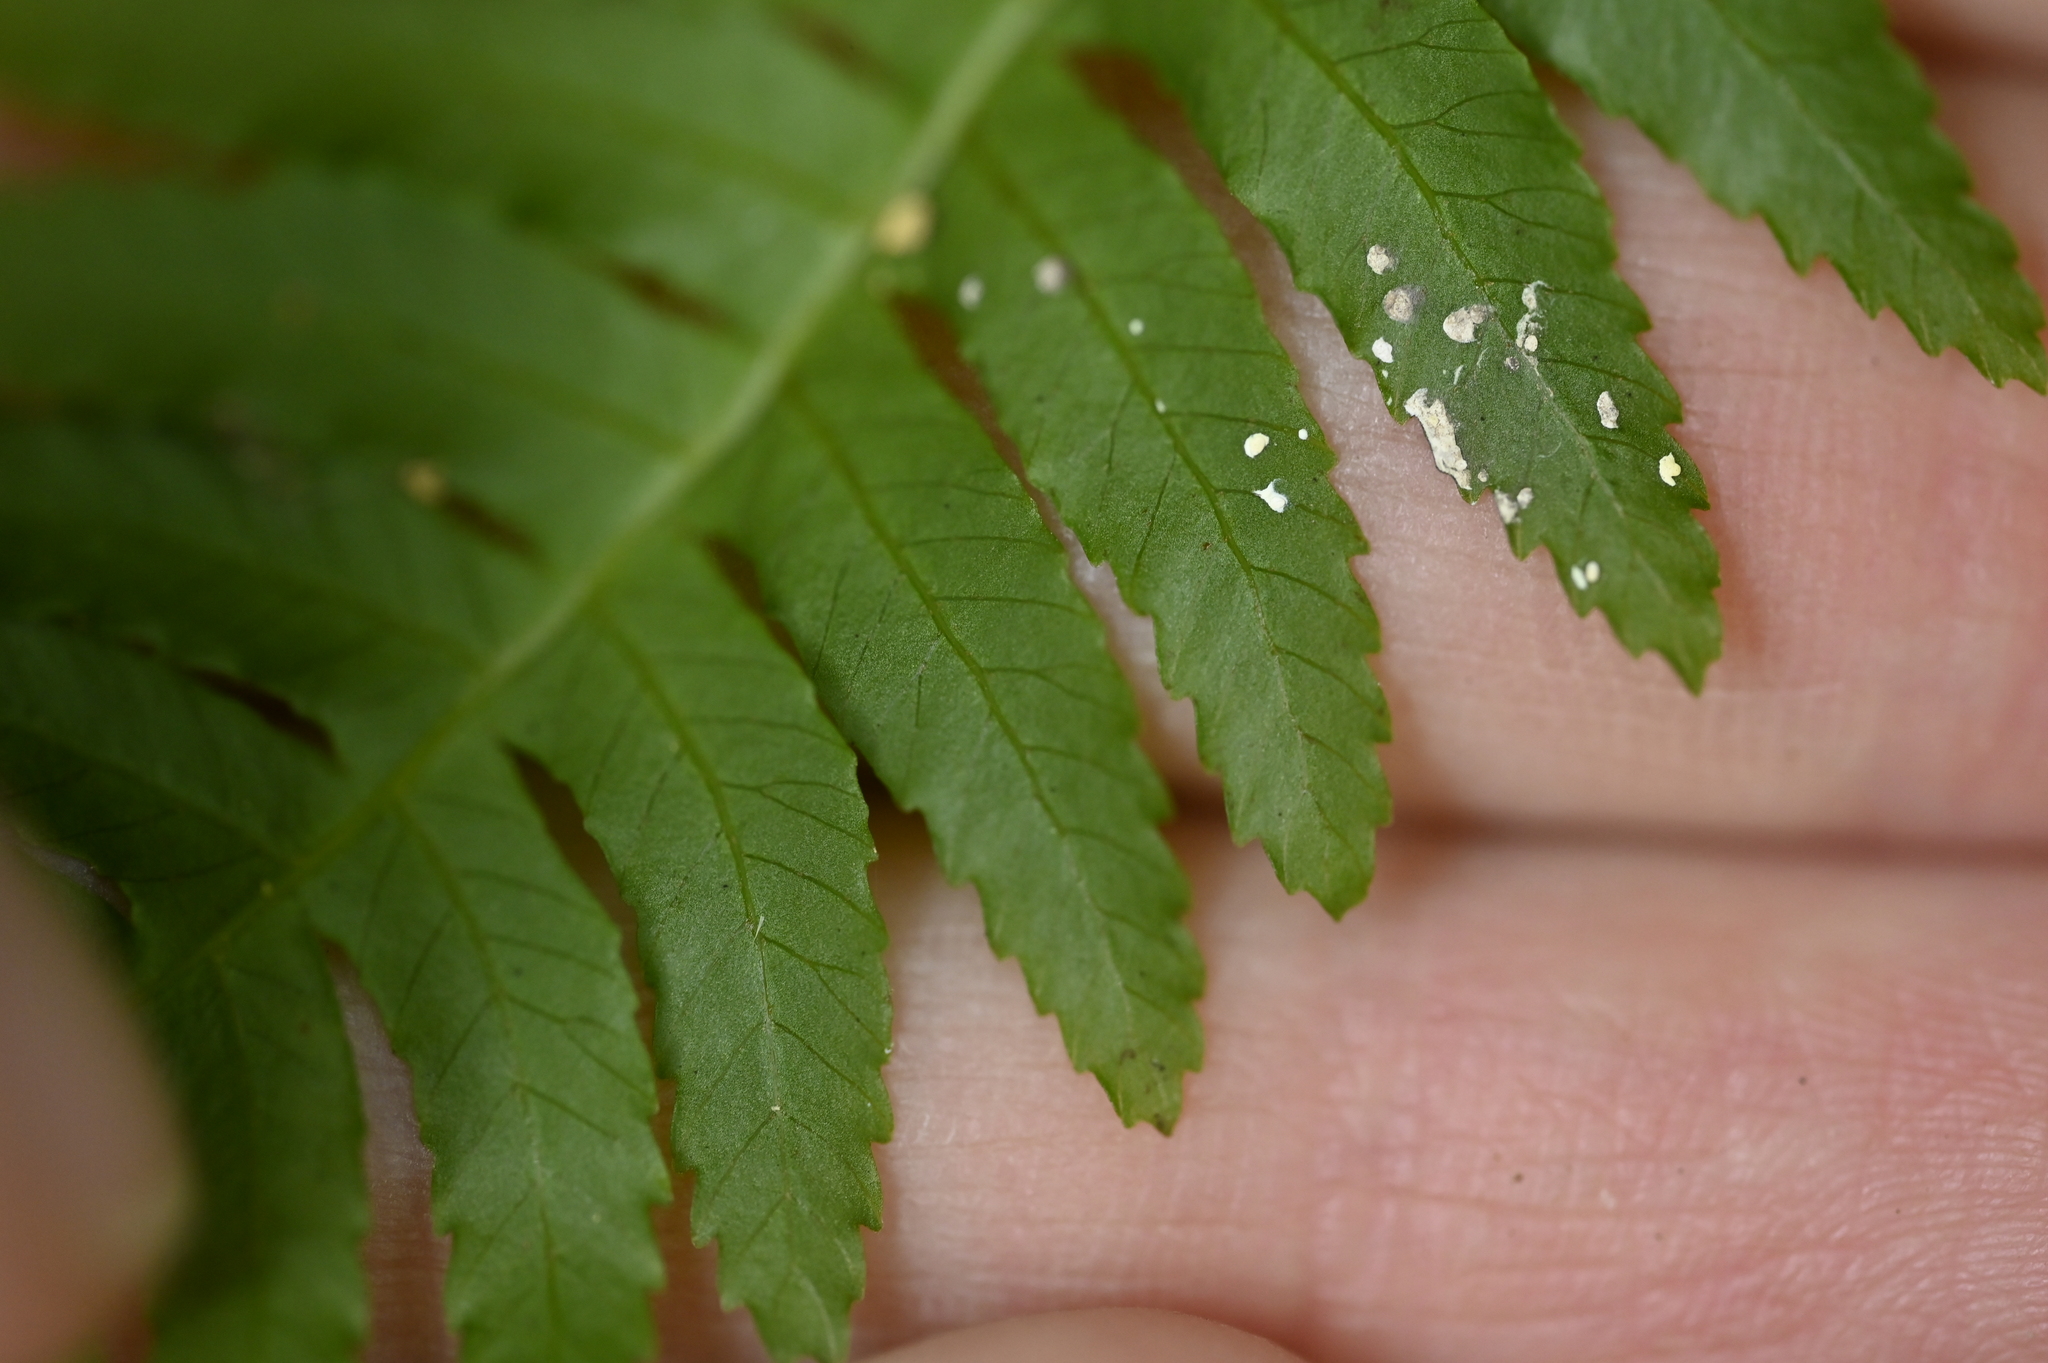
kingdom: Plantae
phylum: Tracheophyta
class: Polypodiopsida
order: Cyatheales
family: Plagiogyriaceae
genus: Plagiogyria
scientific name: Plagiogyria falcata
